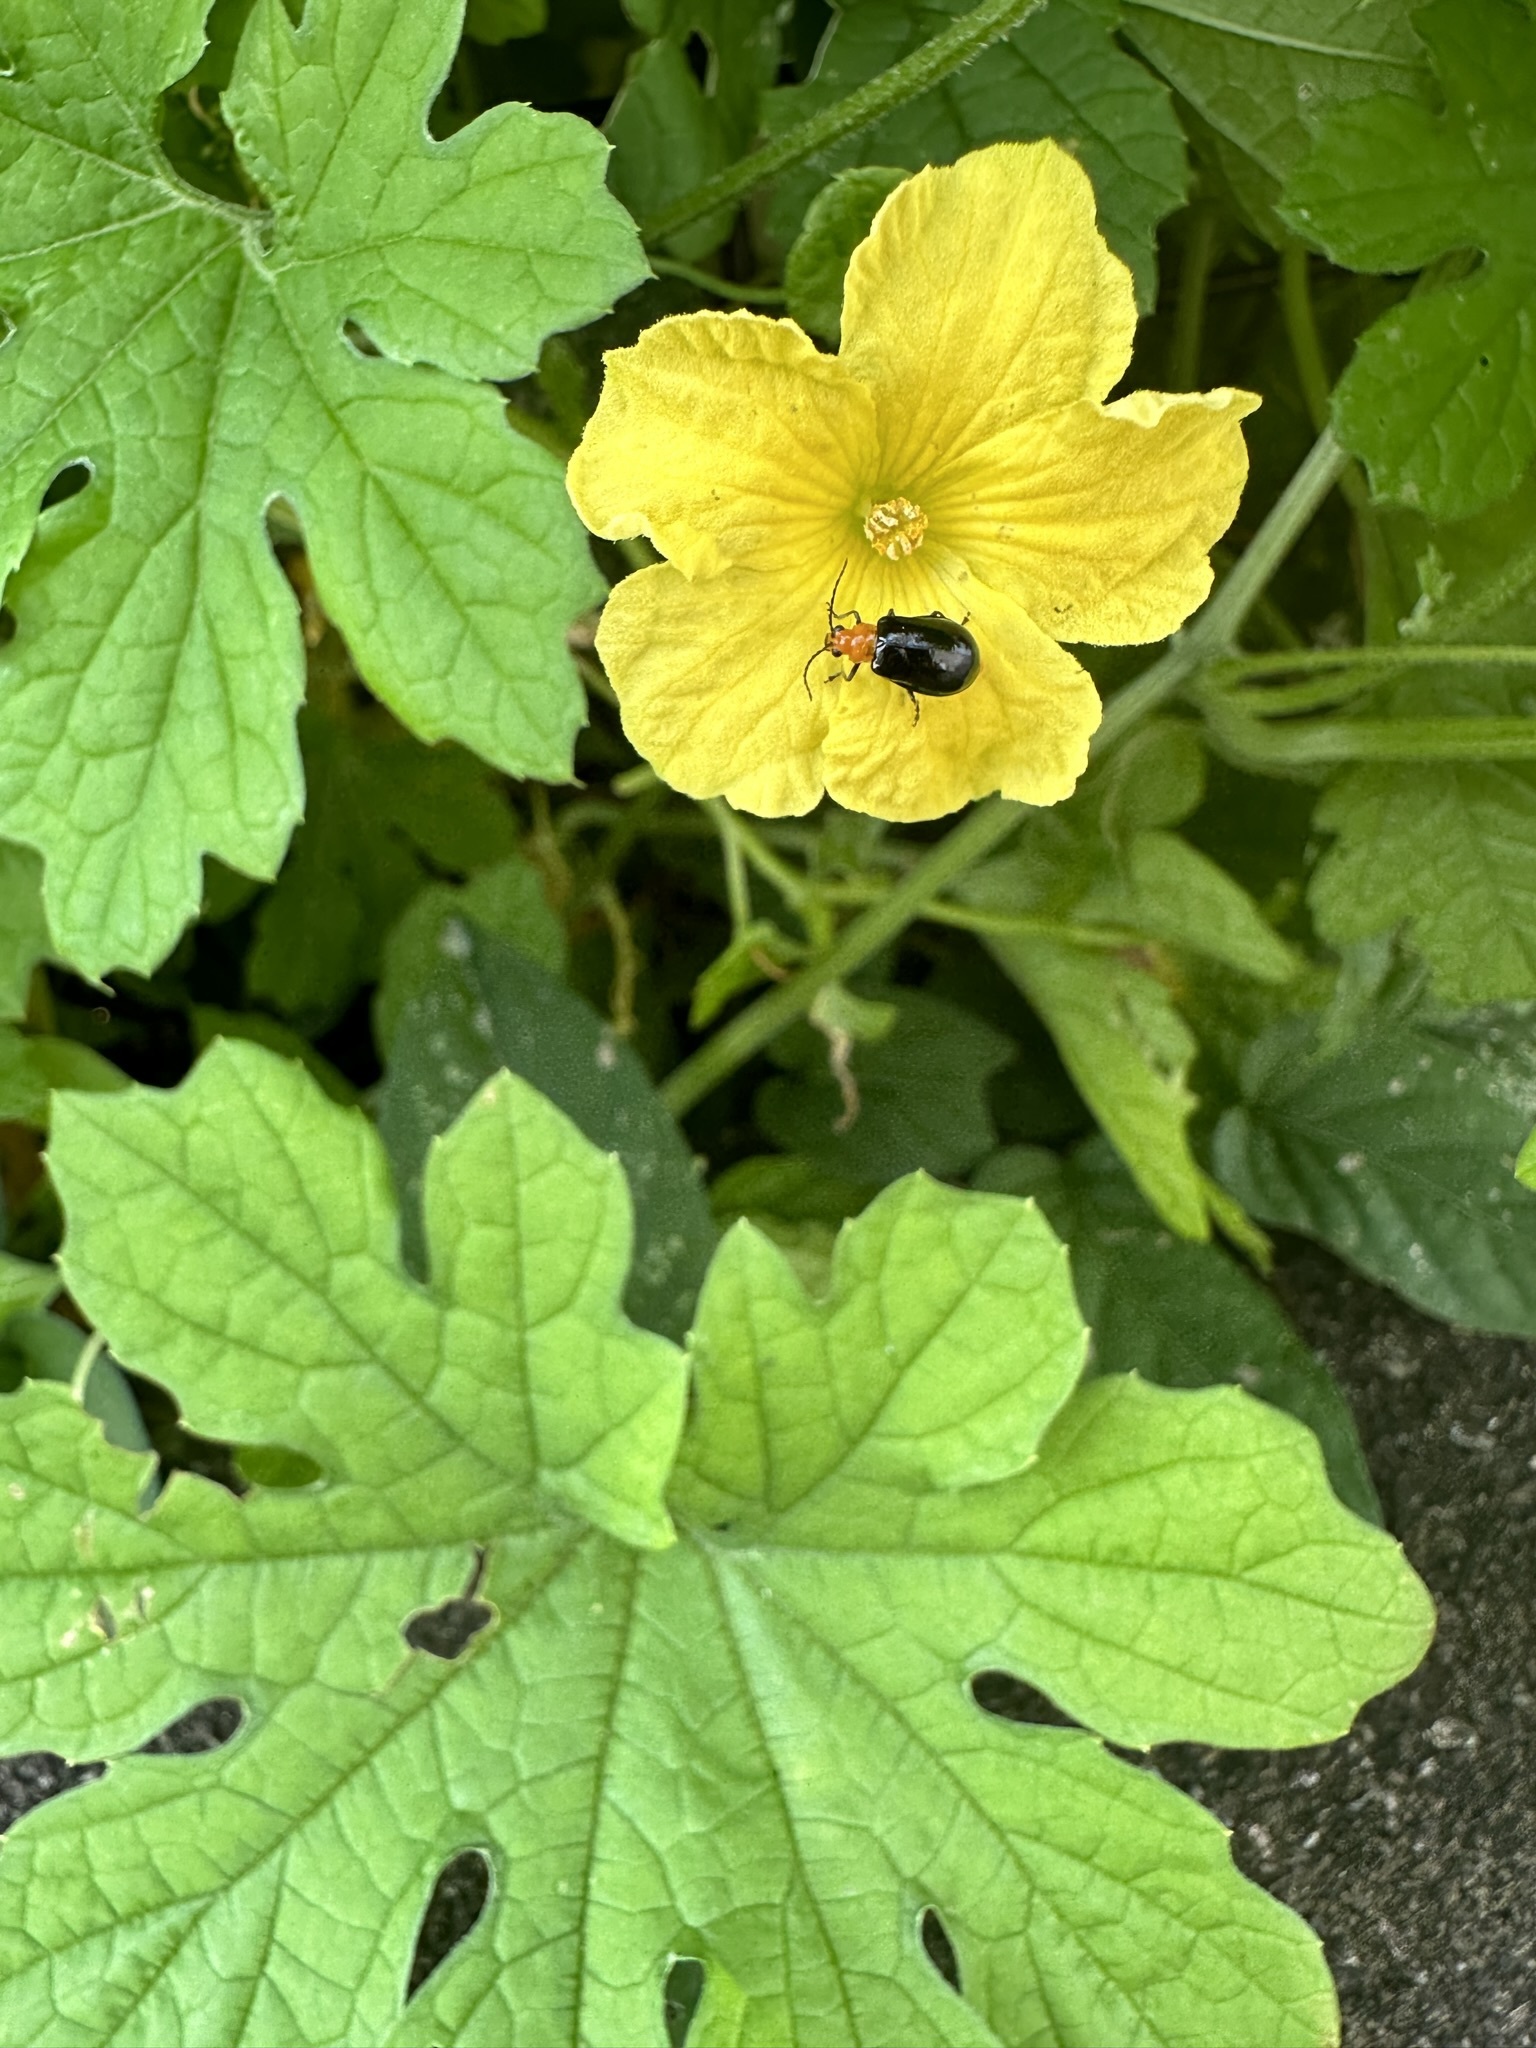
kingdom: Animalia
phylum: Arthropoda
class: Insecta
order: Coleoptera
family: Chrysomelidae
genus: Aulacophora
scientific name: Aulacophora nigripennis
